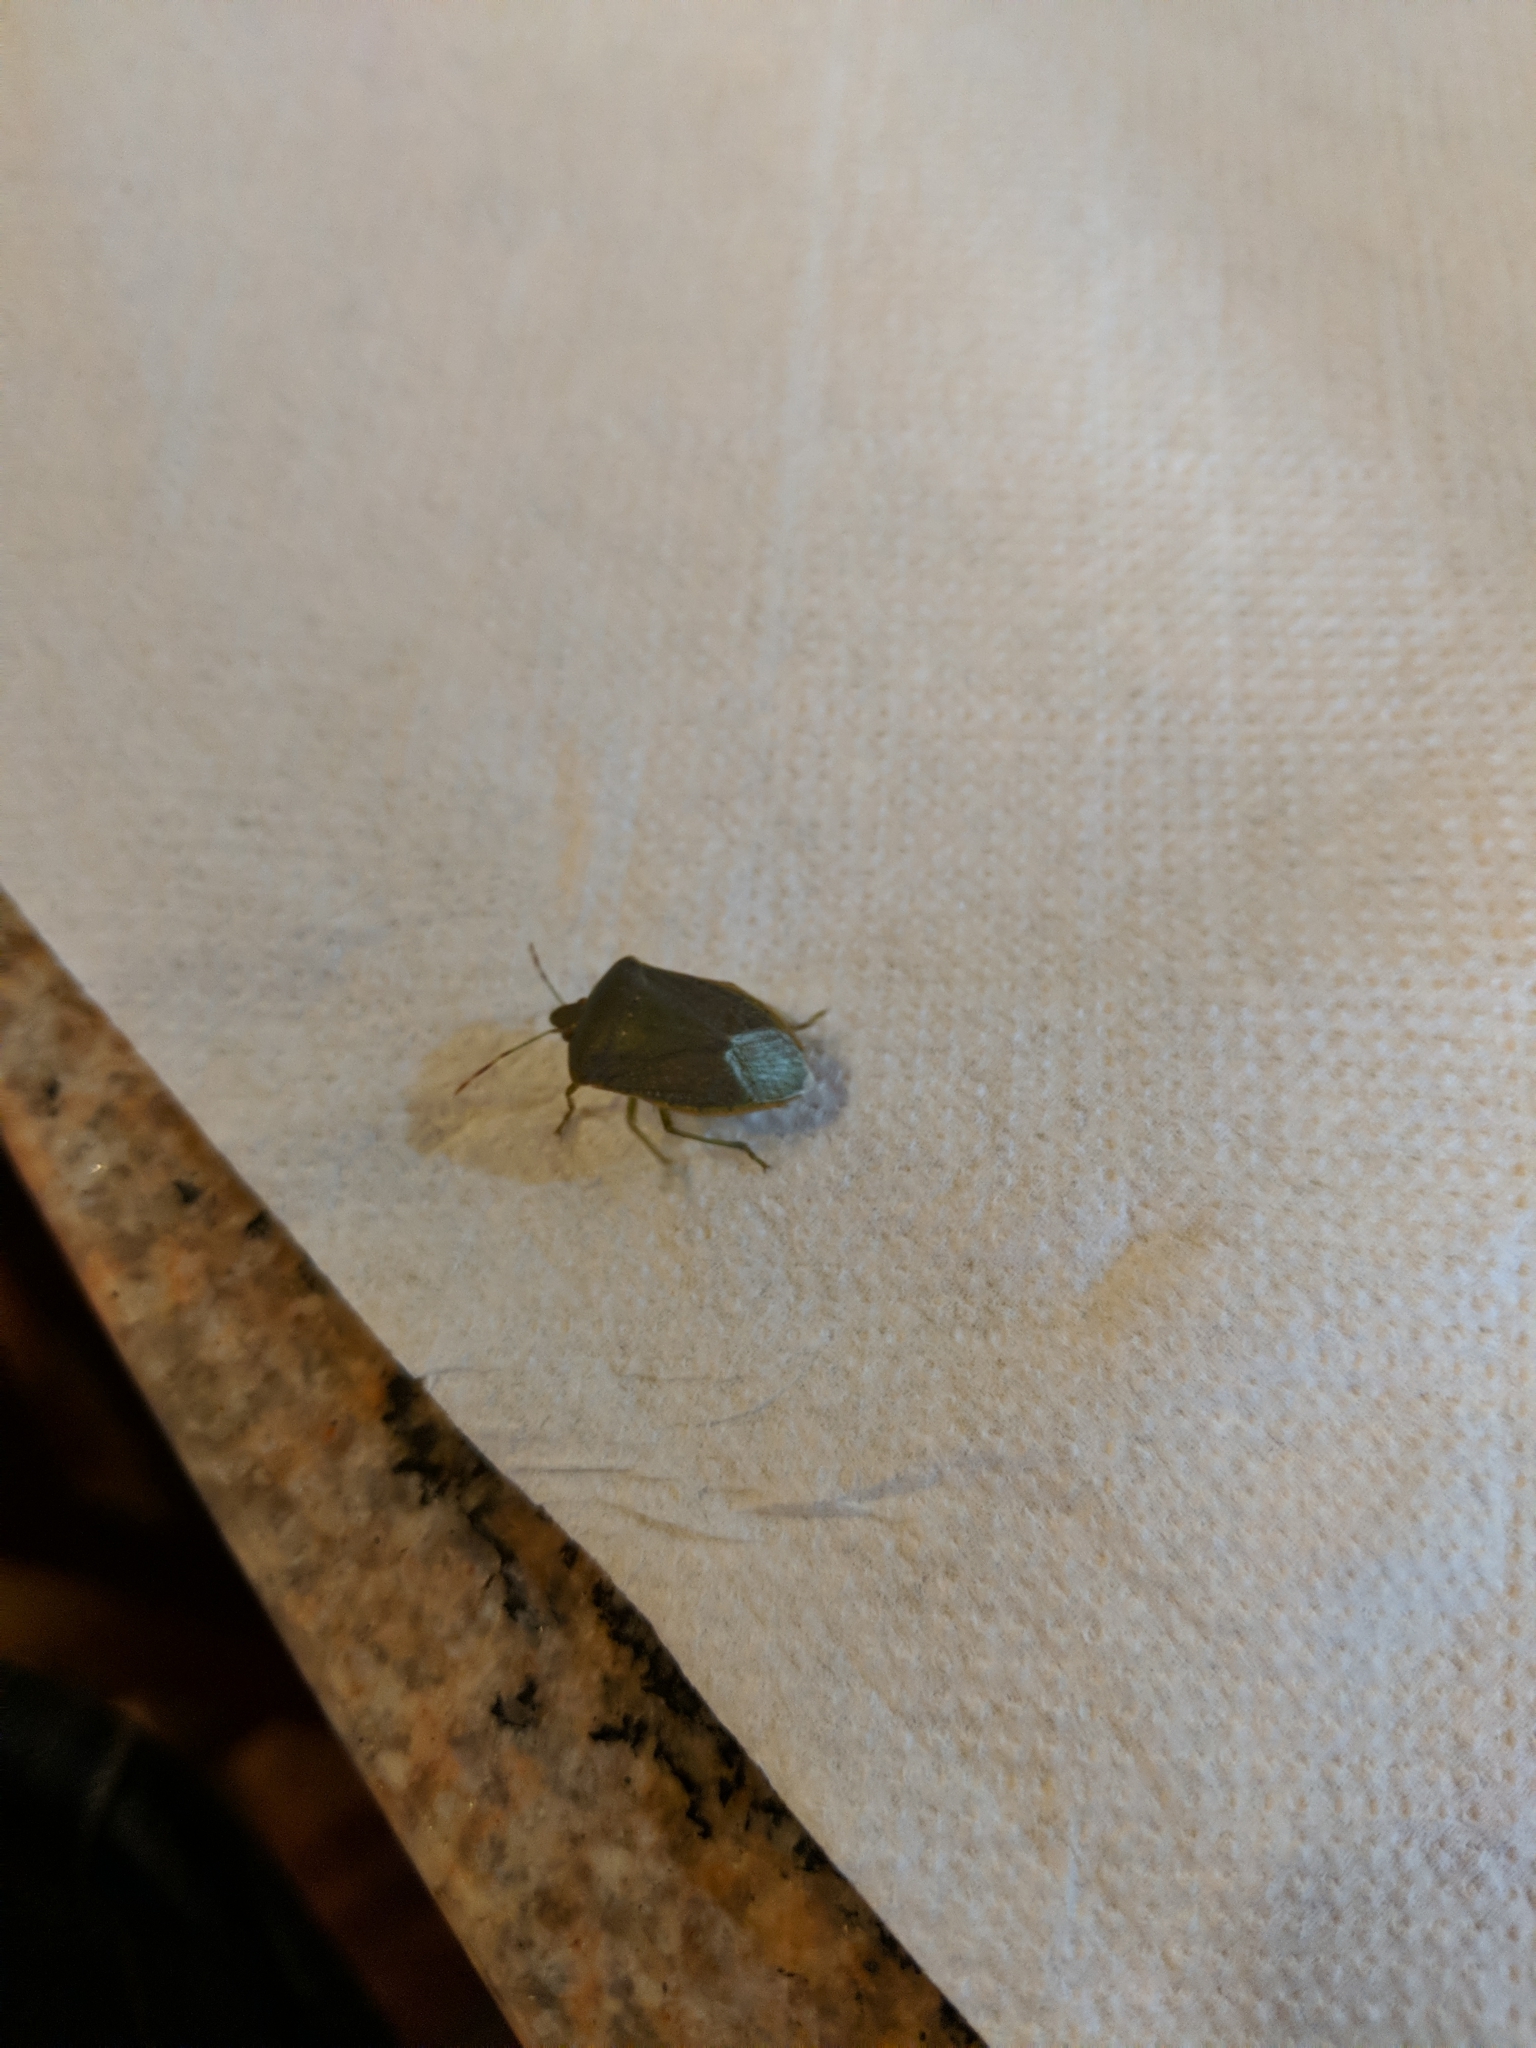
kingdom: Animalia
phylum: Arthropoda
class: Insecta
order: Hemiptera
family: Pentatomidae
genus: Nezara
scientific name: Nezara viridula
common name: Southern green stink bug
